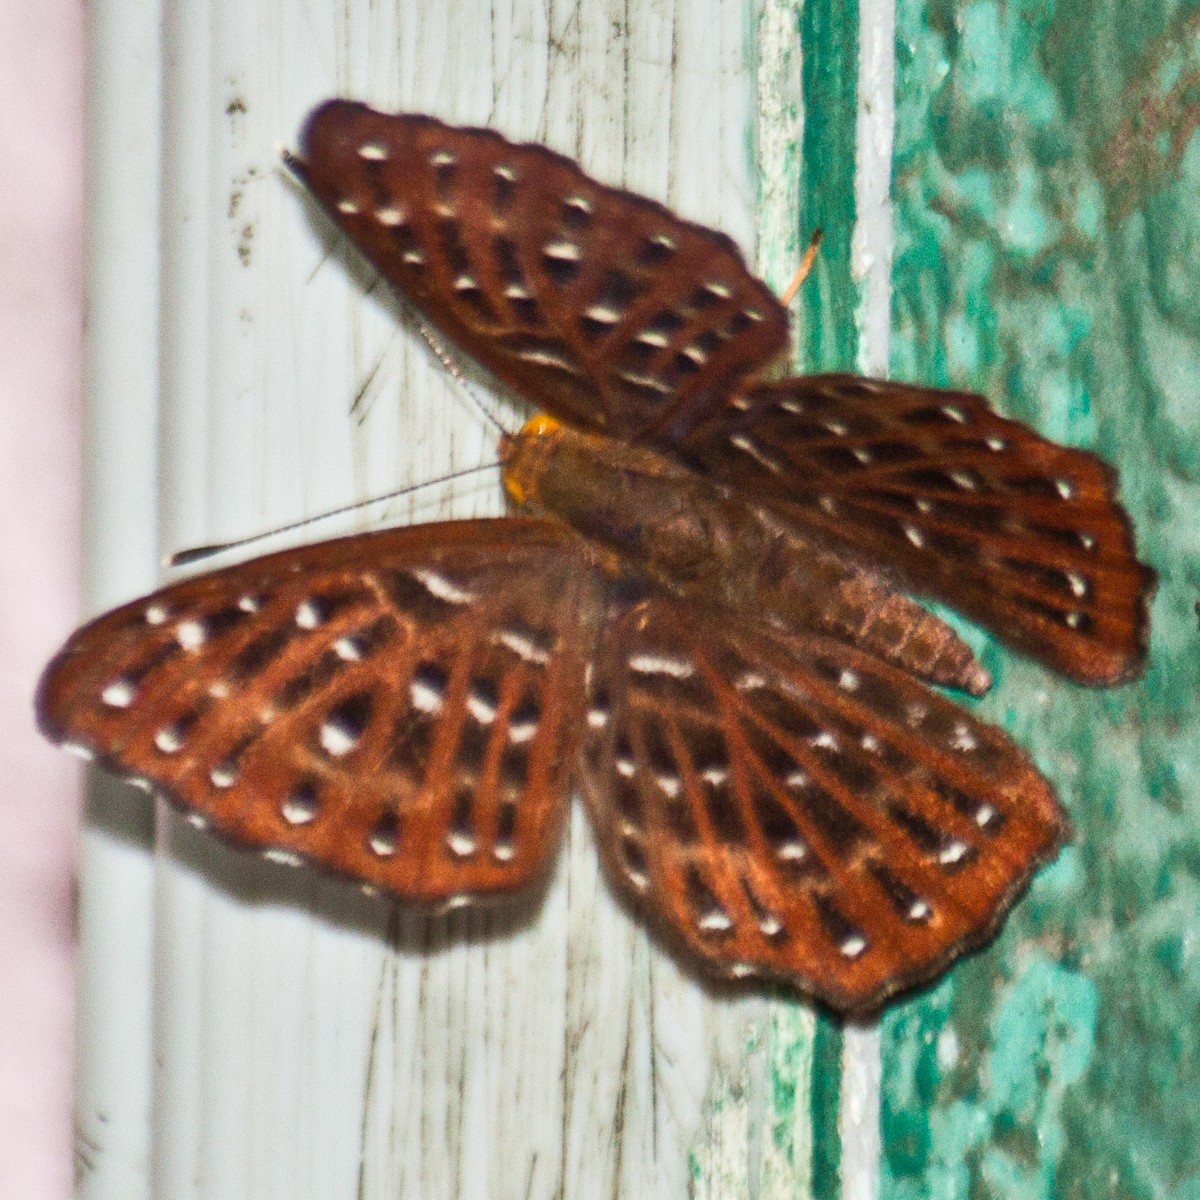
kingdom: Animalia
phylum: Arthropoda
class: Insecta
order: Lepidoptera
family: Riodinidae
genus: Zemeros
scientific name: Zemeros flegyas
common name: Punchinello
